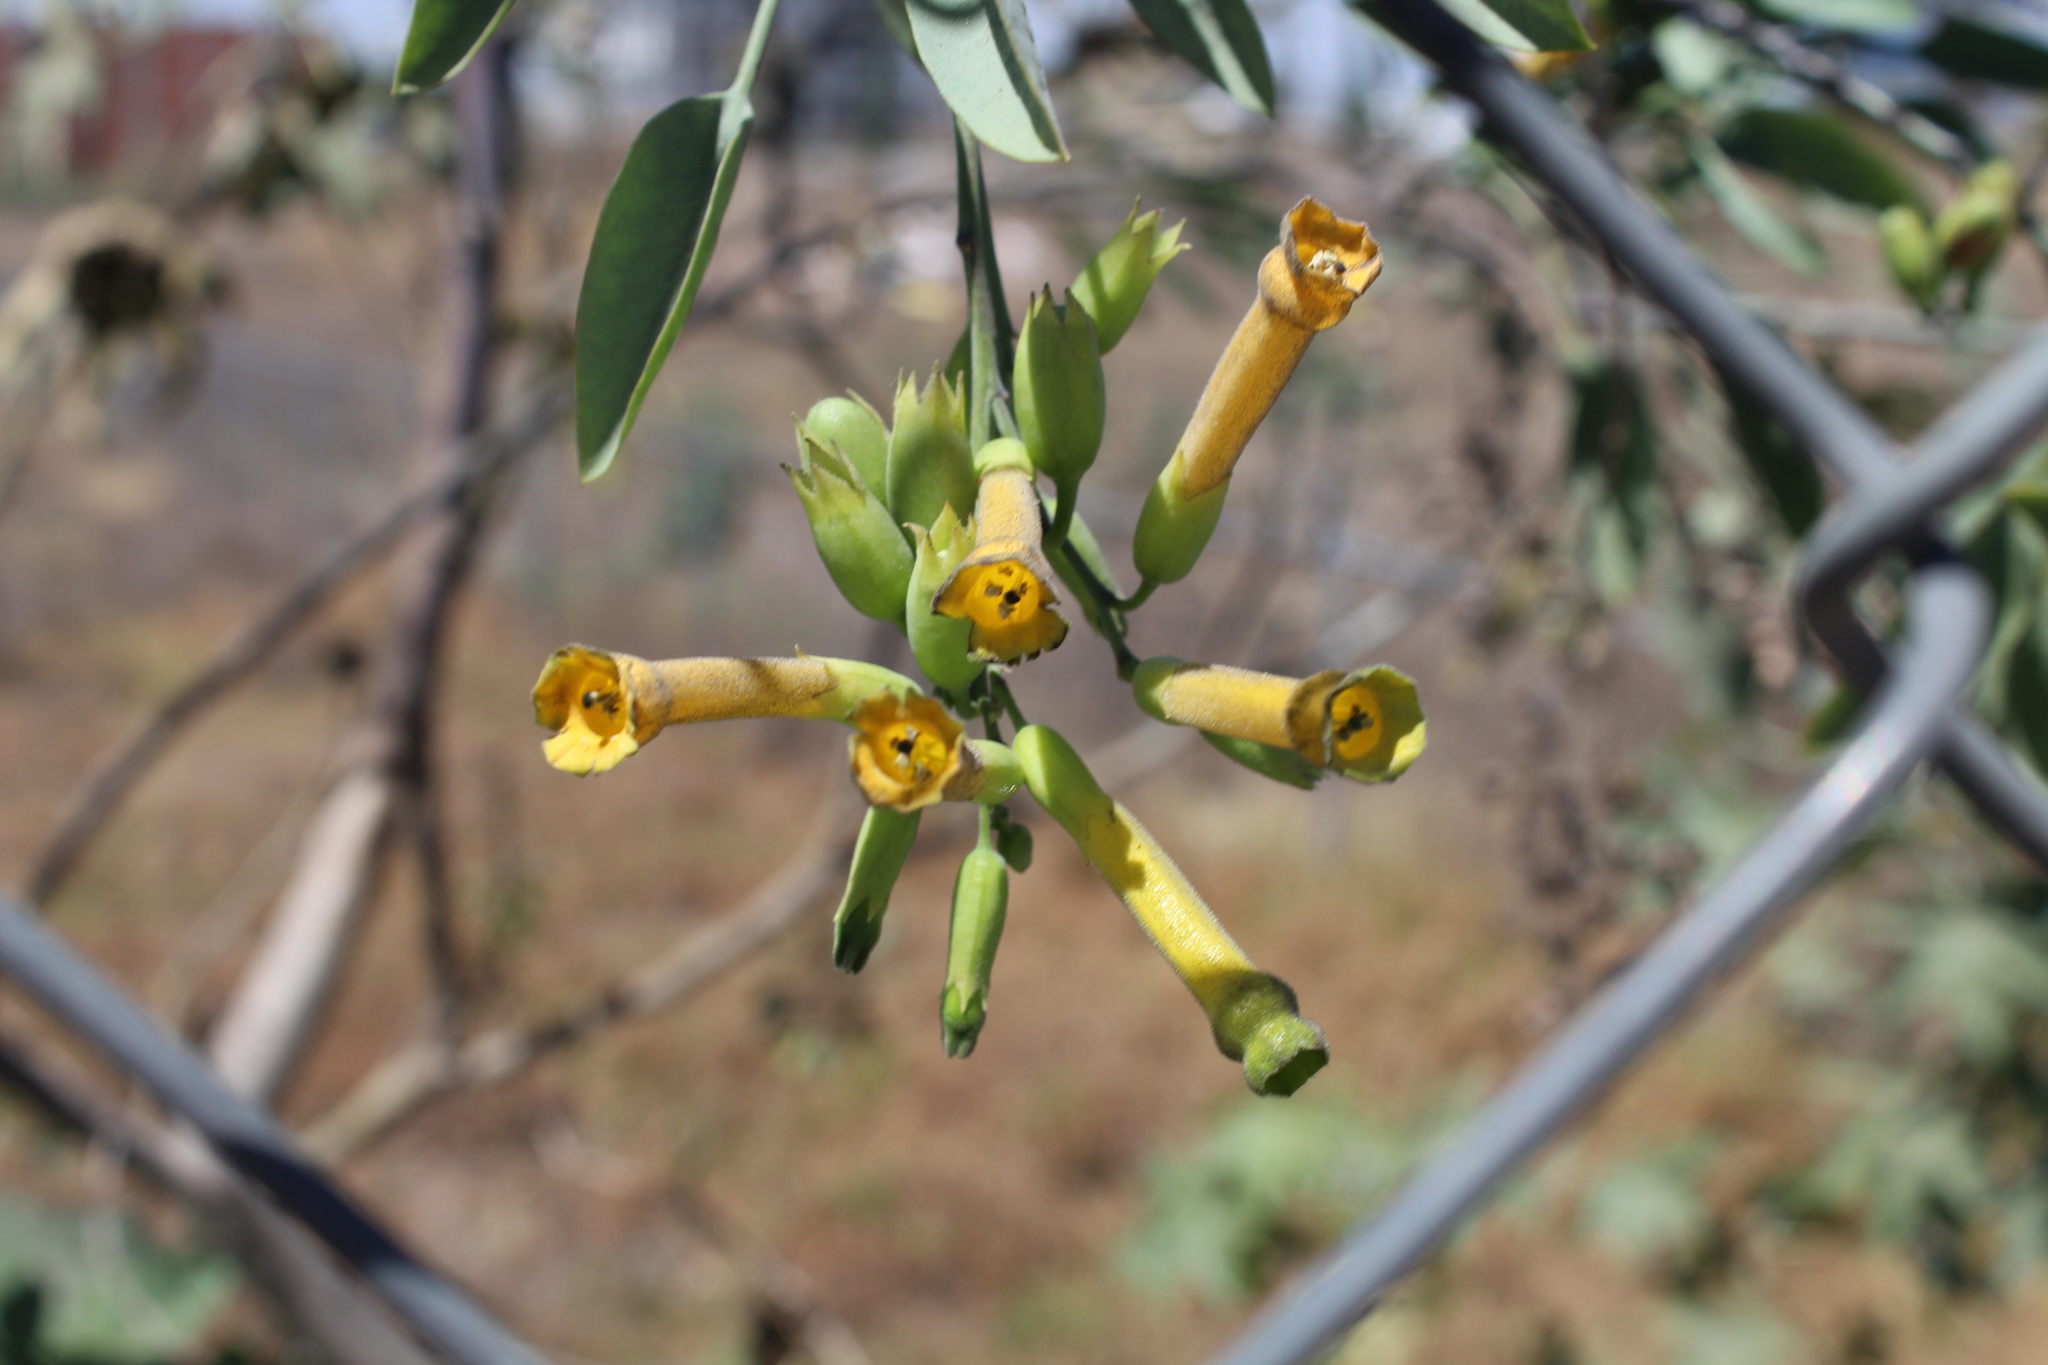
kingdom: Plantae
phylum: Tracheophyta
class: Magnoliopsida
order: Solanales
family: Solanaceae
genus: Nicotiana
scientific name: Nicotiana glauca
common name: Tree tobacco
